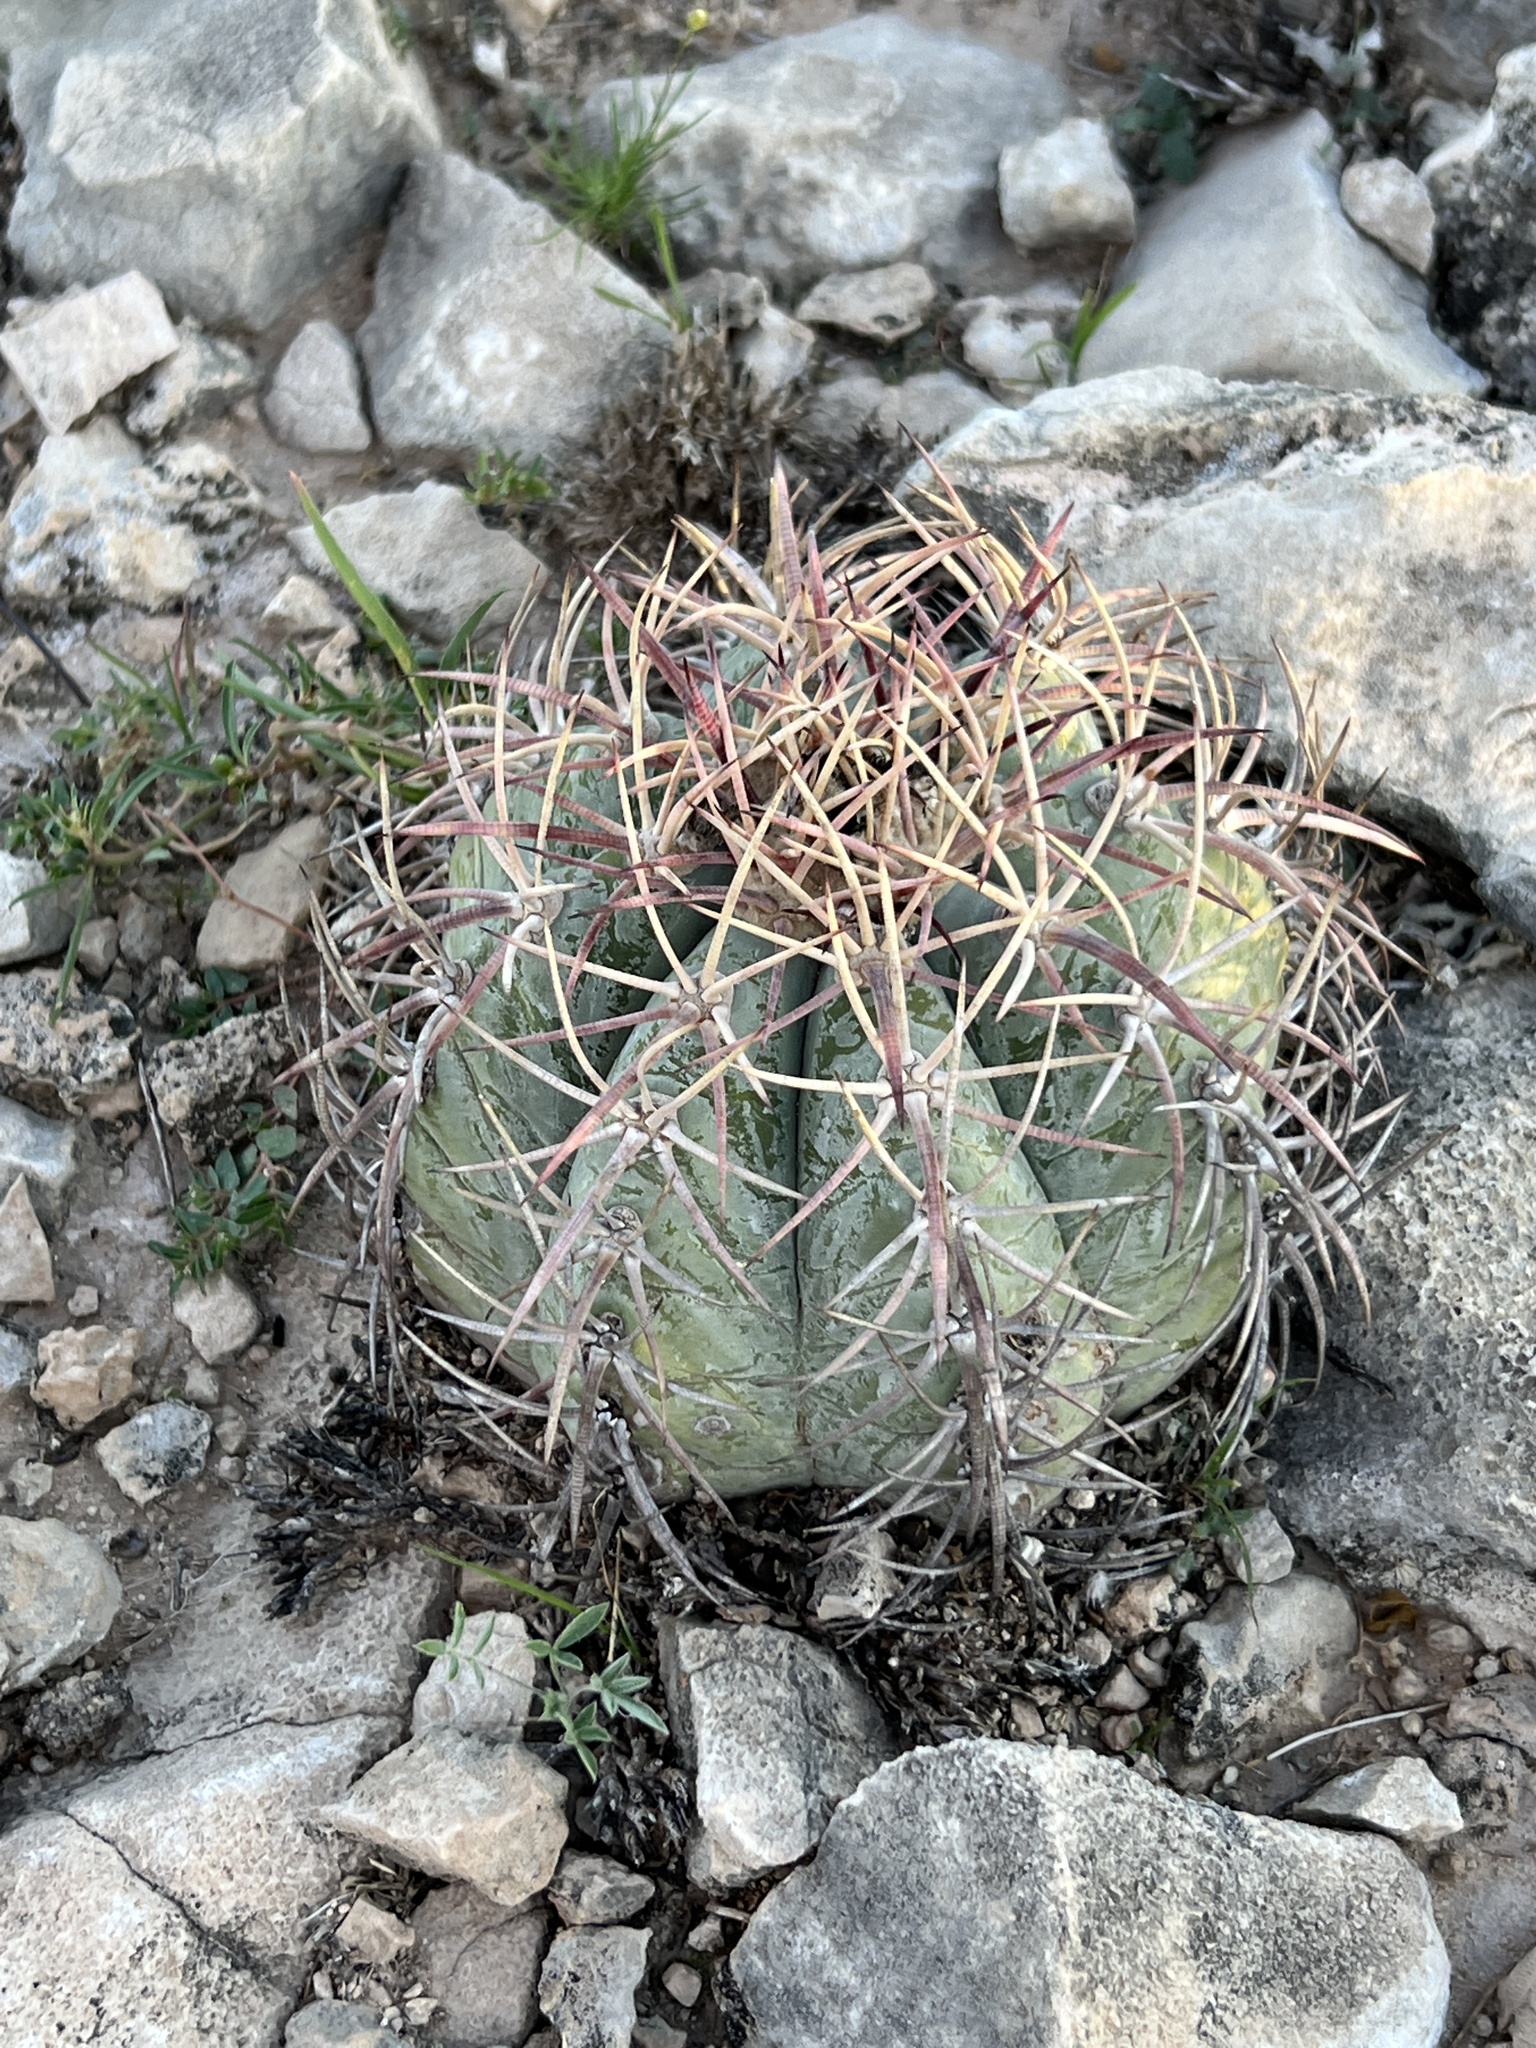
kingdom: Plantae
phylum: Tracheophyta
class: Magnoliopsida
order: Caryophyllales
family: Cactaceae
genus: Echinocactus
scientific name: Echinocactus horizonthalonius
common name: Devilshead
